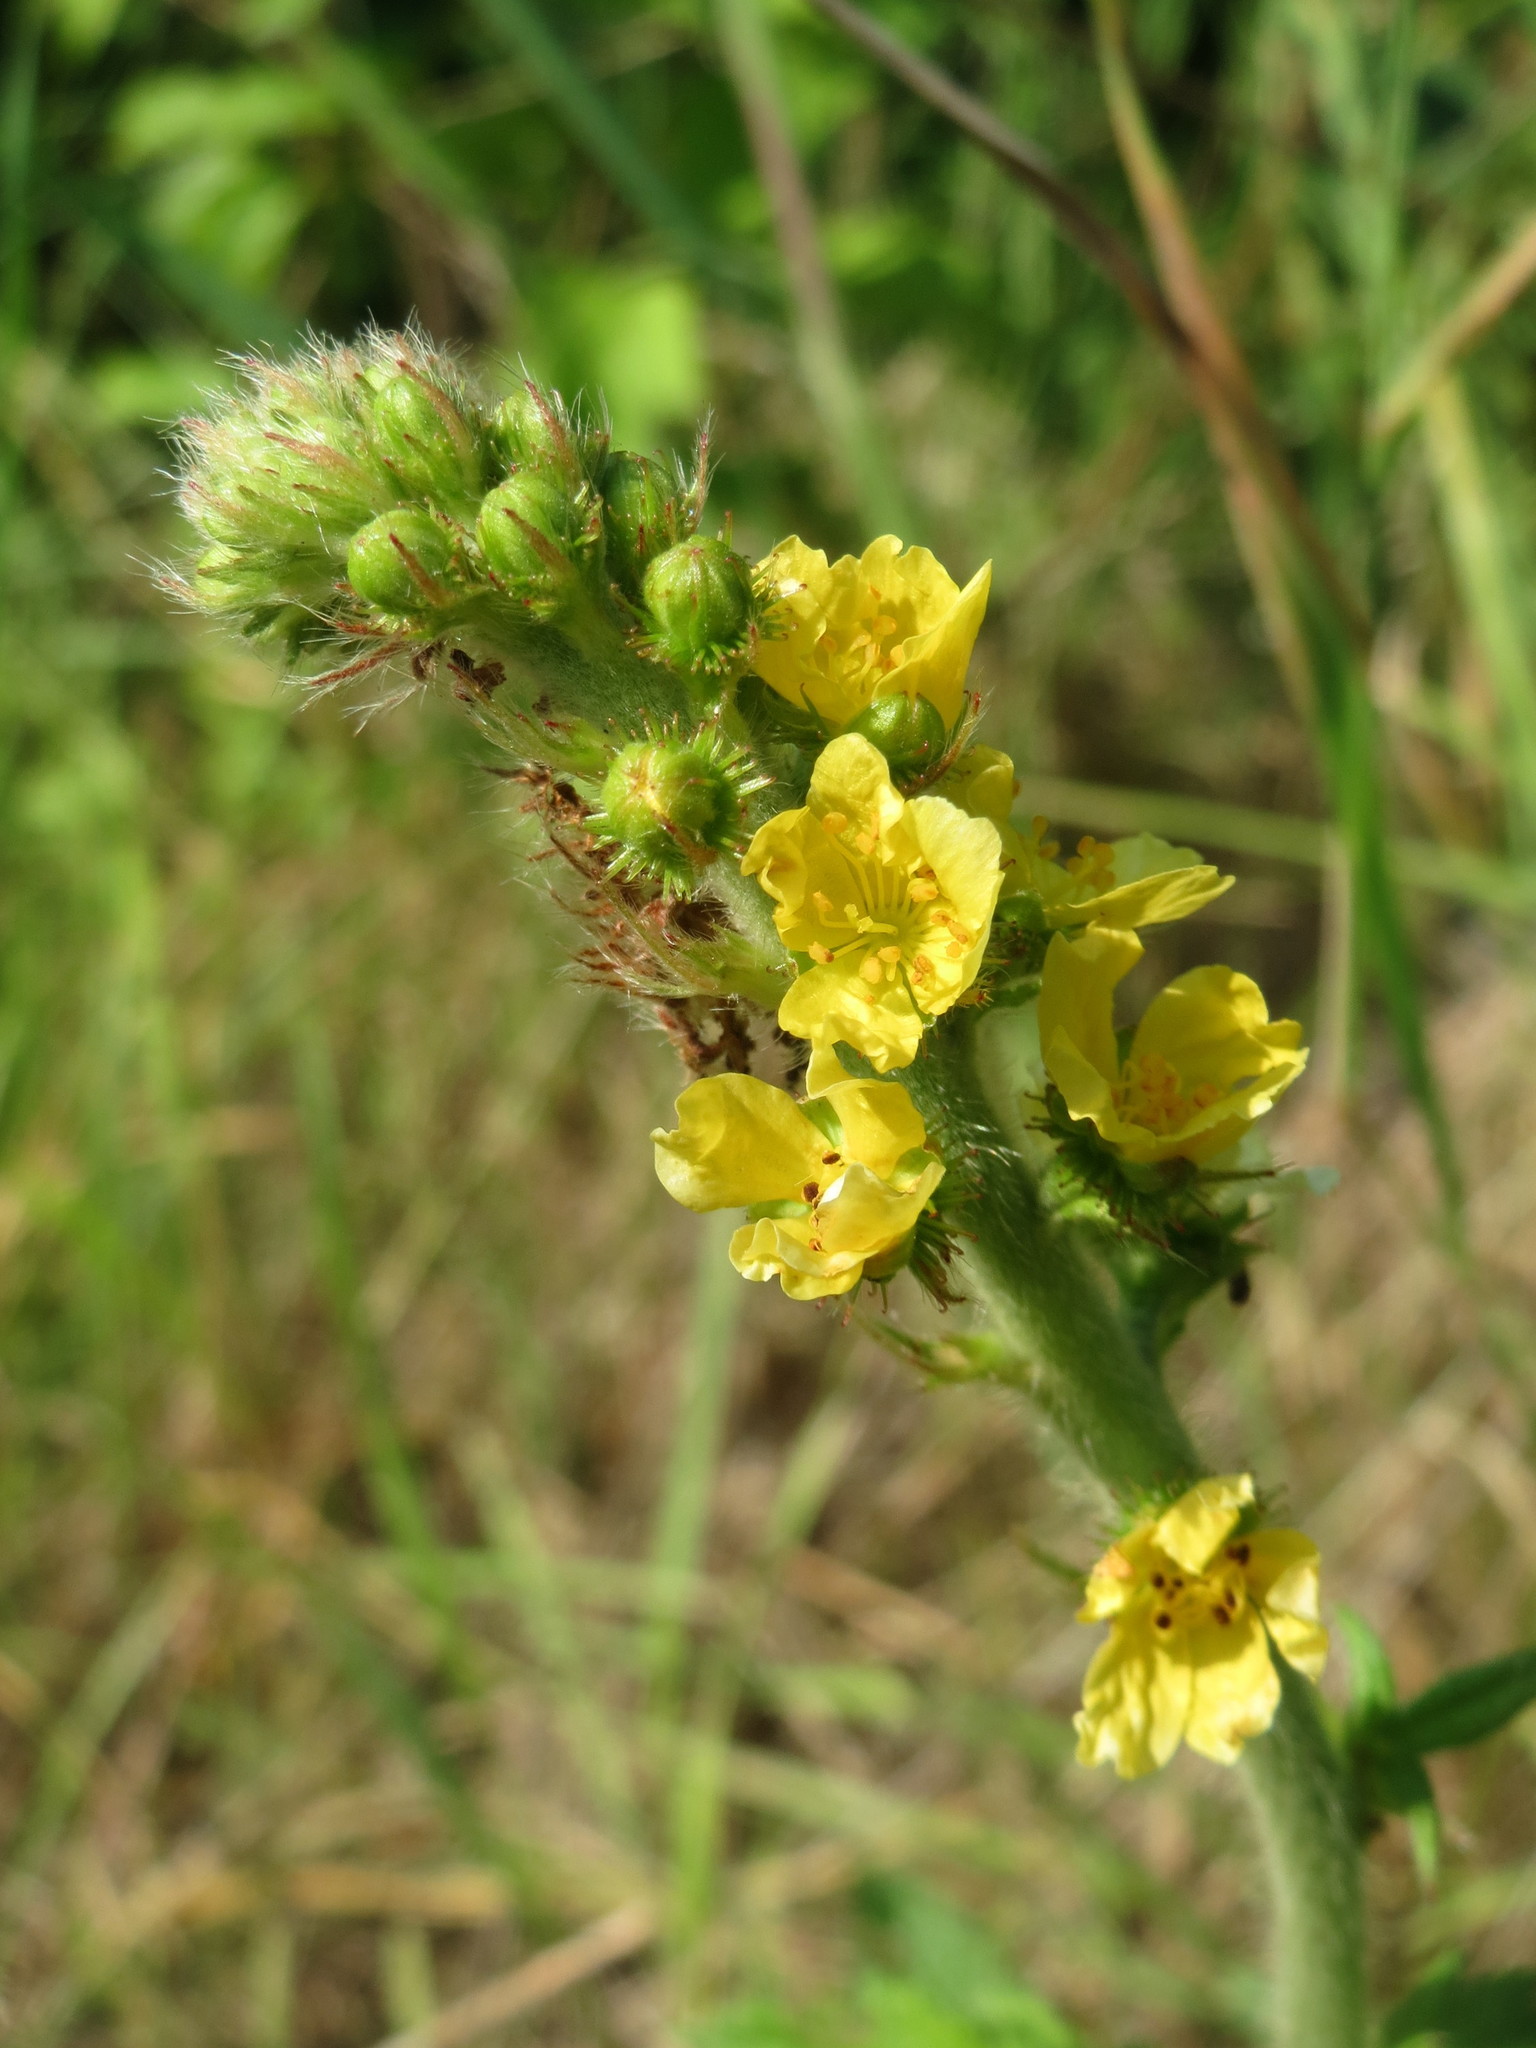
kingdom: Plantae
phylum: Tracheophyta
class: Magnoliopsida
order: Rosales
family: Rosaceae
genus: Agrimonia
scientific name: Agrimonia eupatoria
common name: Agrimony
